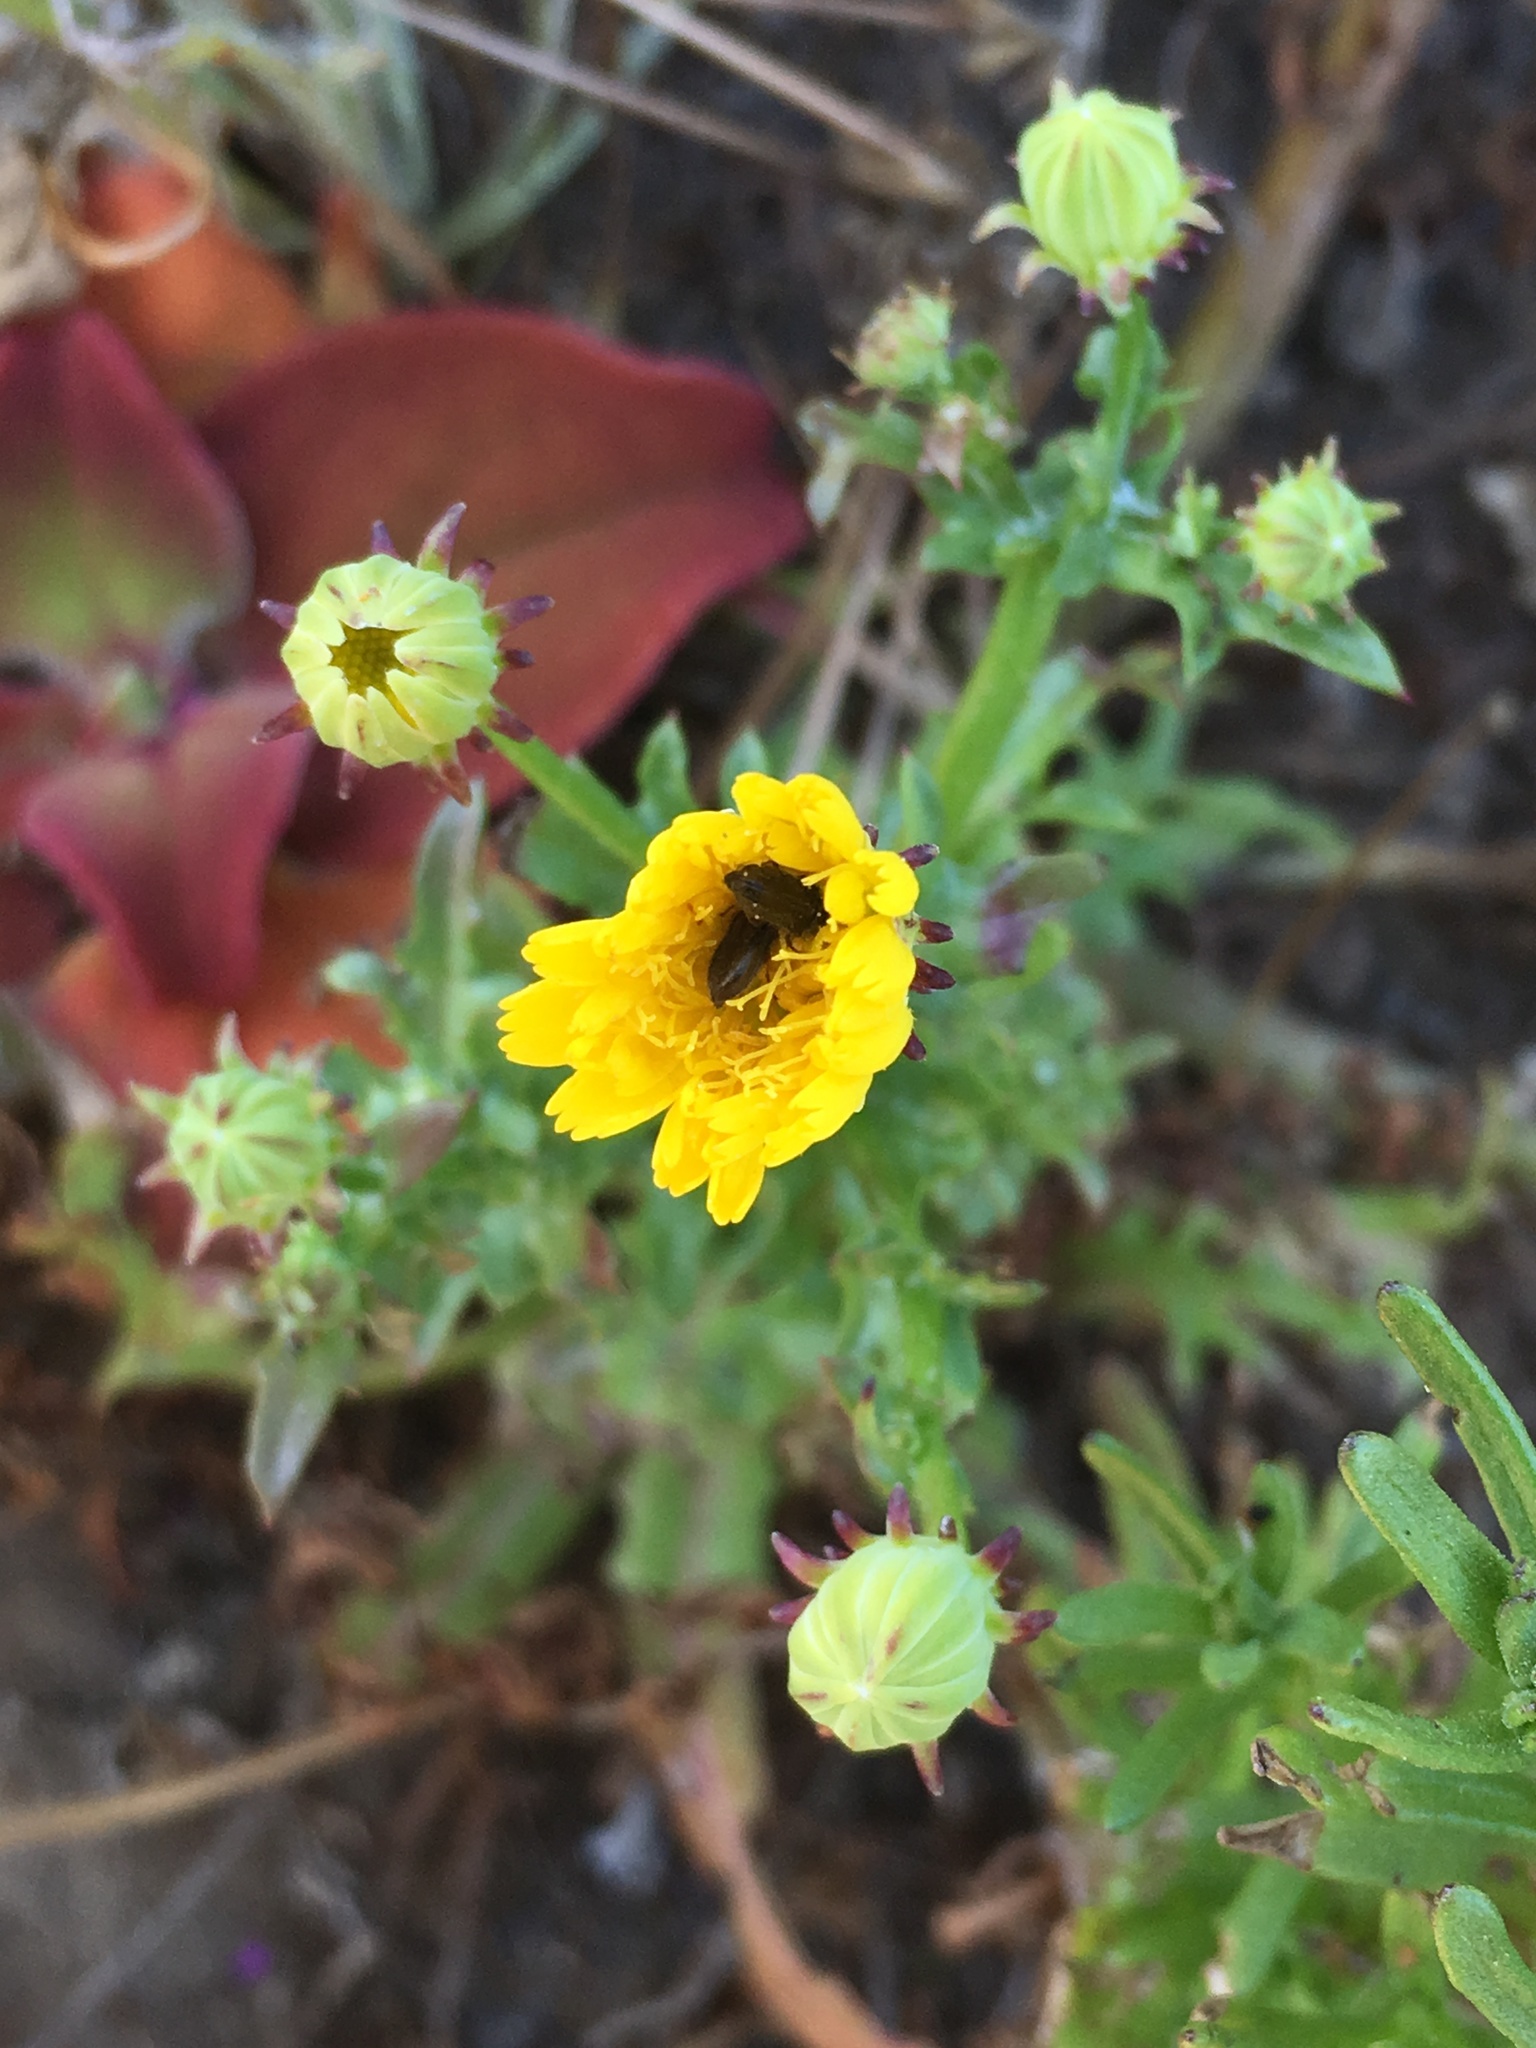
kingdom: Plantae
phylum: Tracheophyta
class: Magnoliopsida
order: Asterales
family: Asteraceae
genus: Malacothrix
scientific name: Malacothrix foliosa
